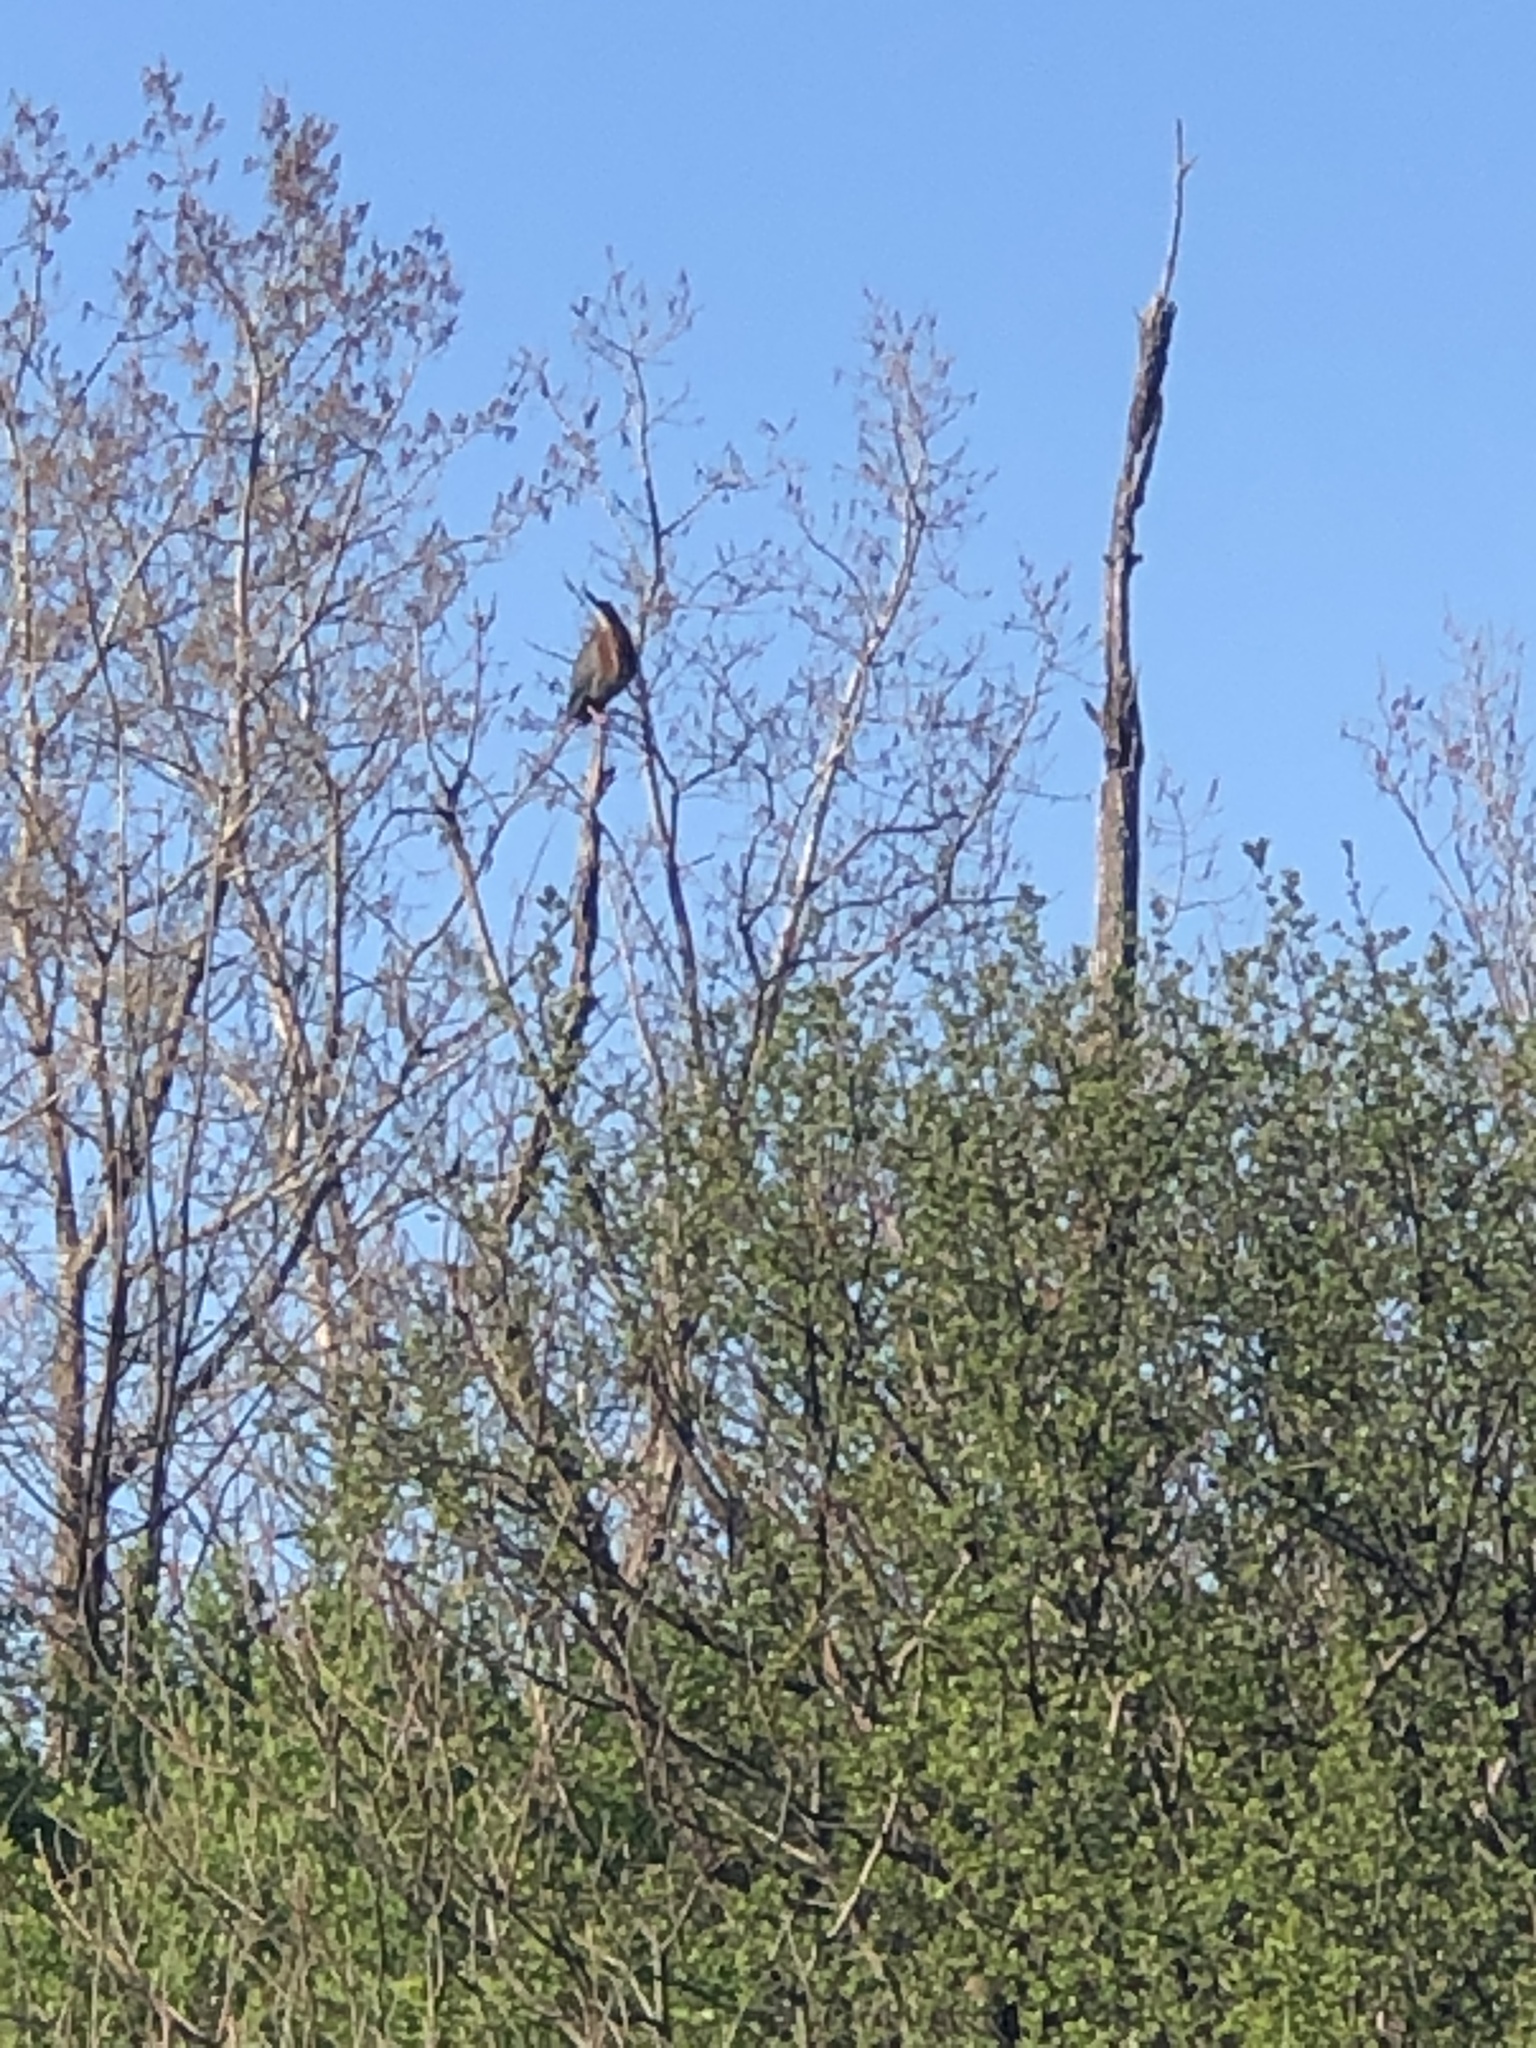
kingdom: Animalia
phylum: Chordata
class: Aves
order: Pelecaniformes
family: Ardeidae
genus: Butorides
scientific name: Butorides virescens
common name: Green heron
